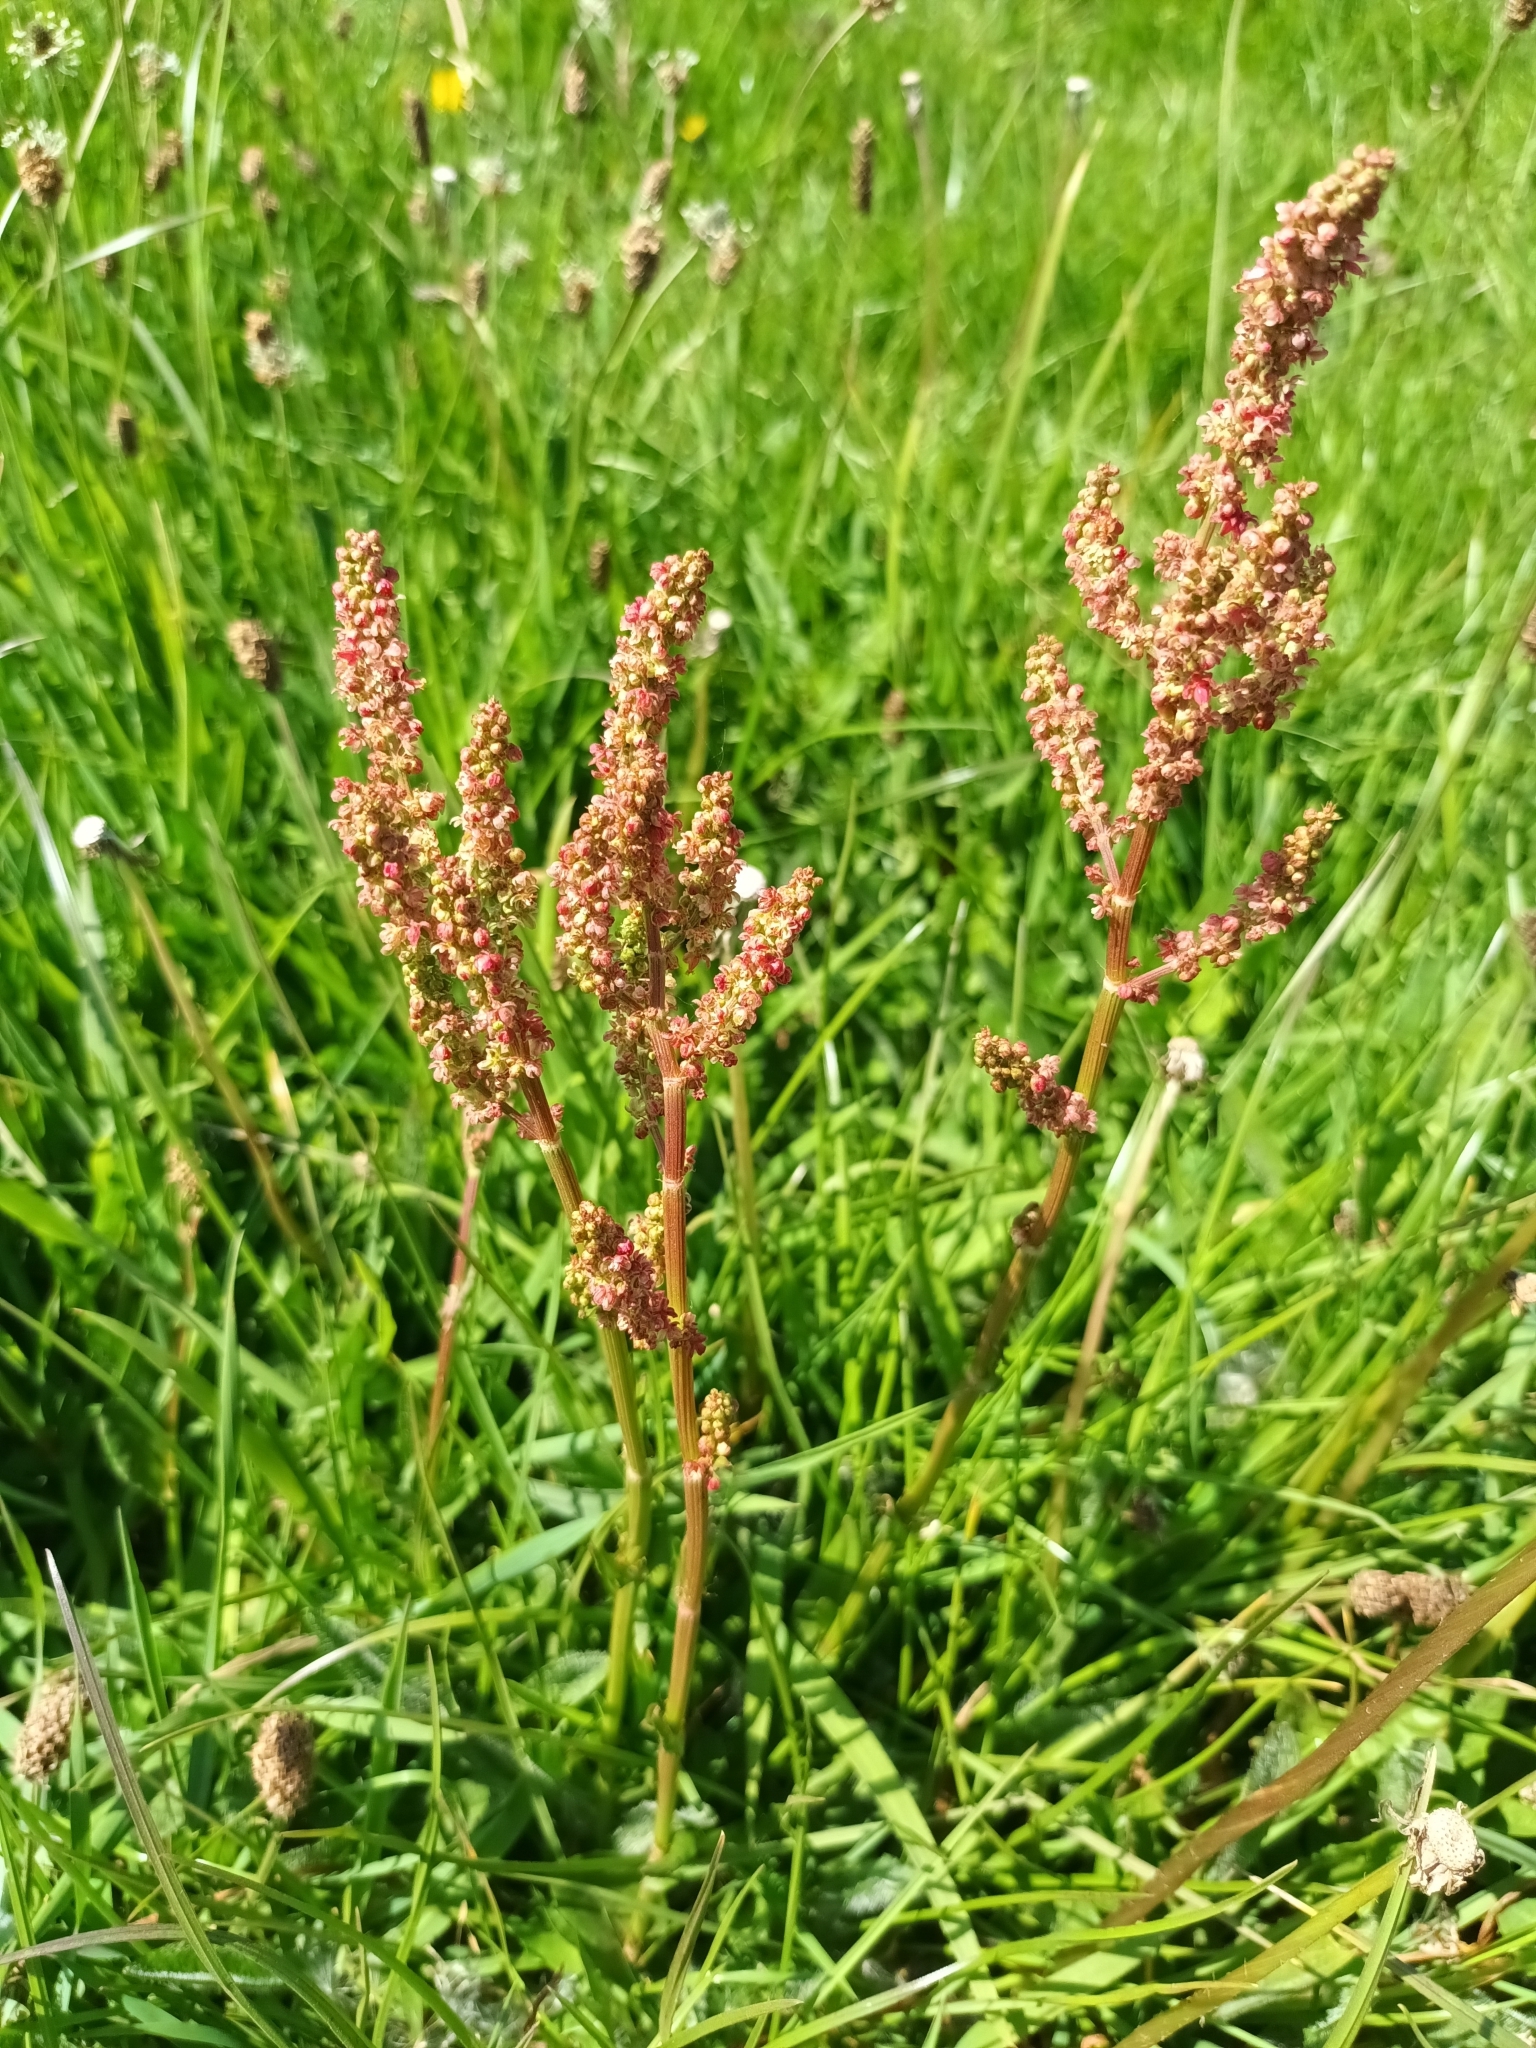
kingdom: Plantae
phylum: Tracheophyta
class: Magnoliopsida
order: Caryophyllales
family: Polygonaceae
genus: Rumex
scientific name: Rumex acetosella
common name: Common sheep sorrel
